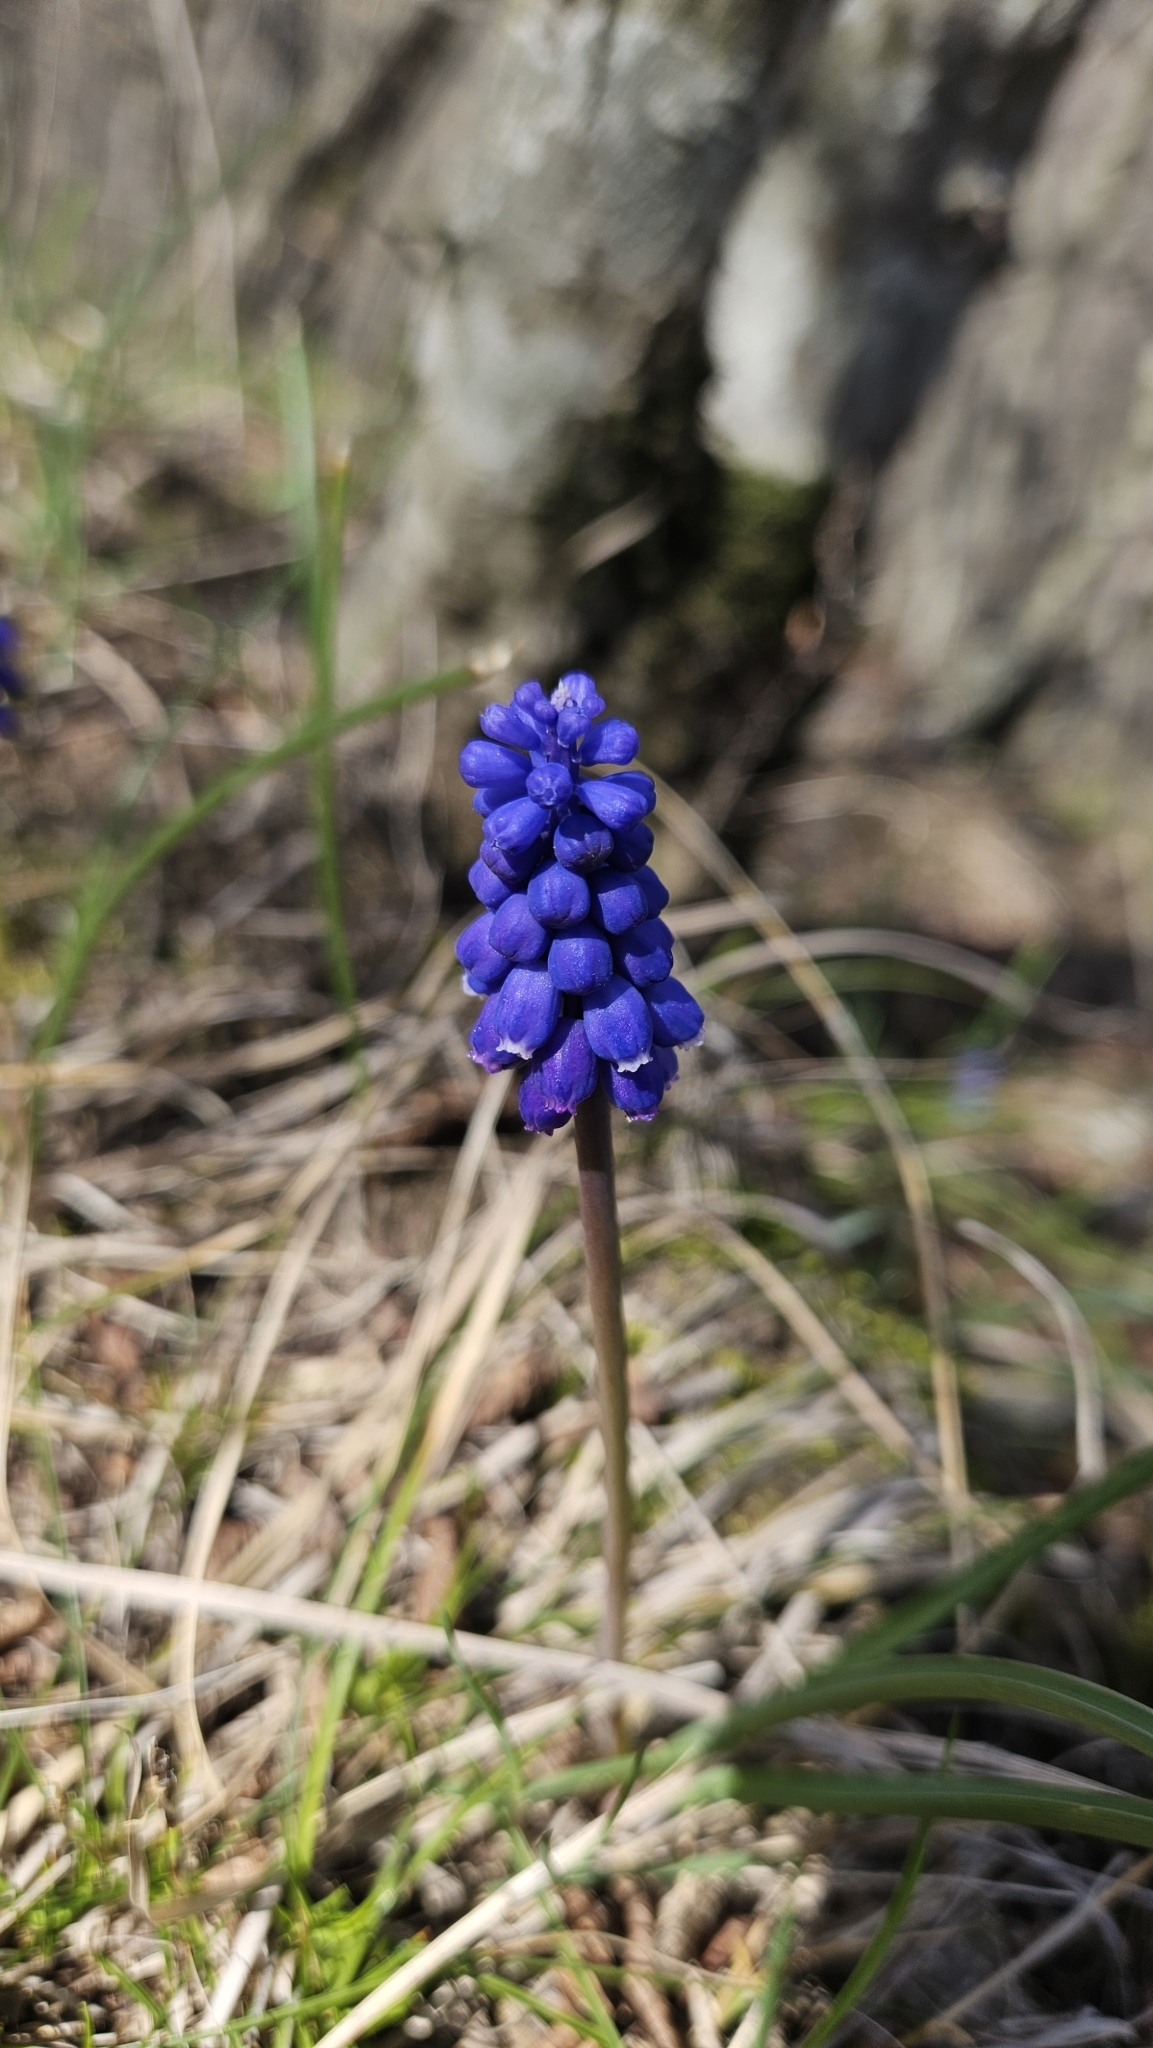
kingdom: Plantae
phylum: Tracheophyta
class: Liliopsida
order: Asparagales
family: Asparagaceae
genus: Muscari
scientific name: Muscari armeniacum
